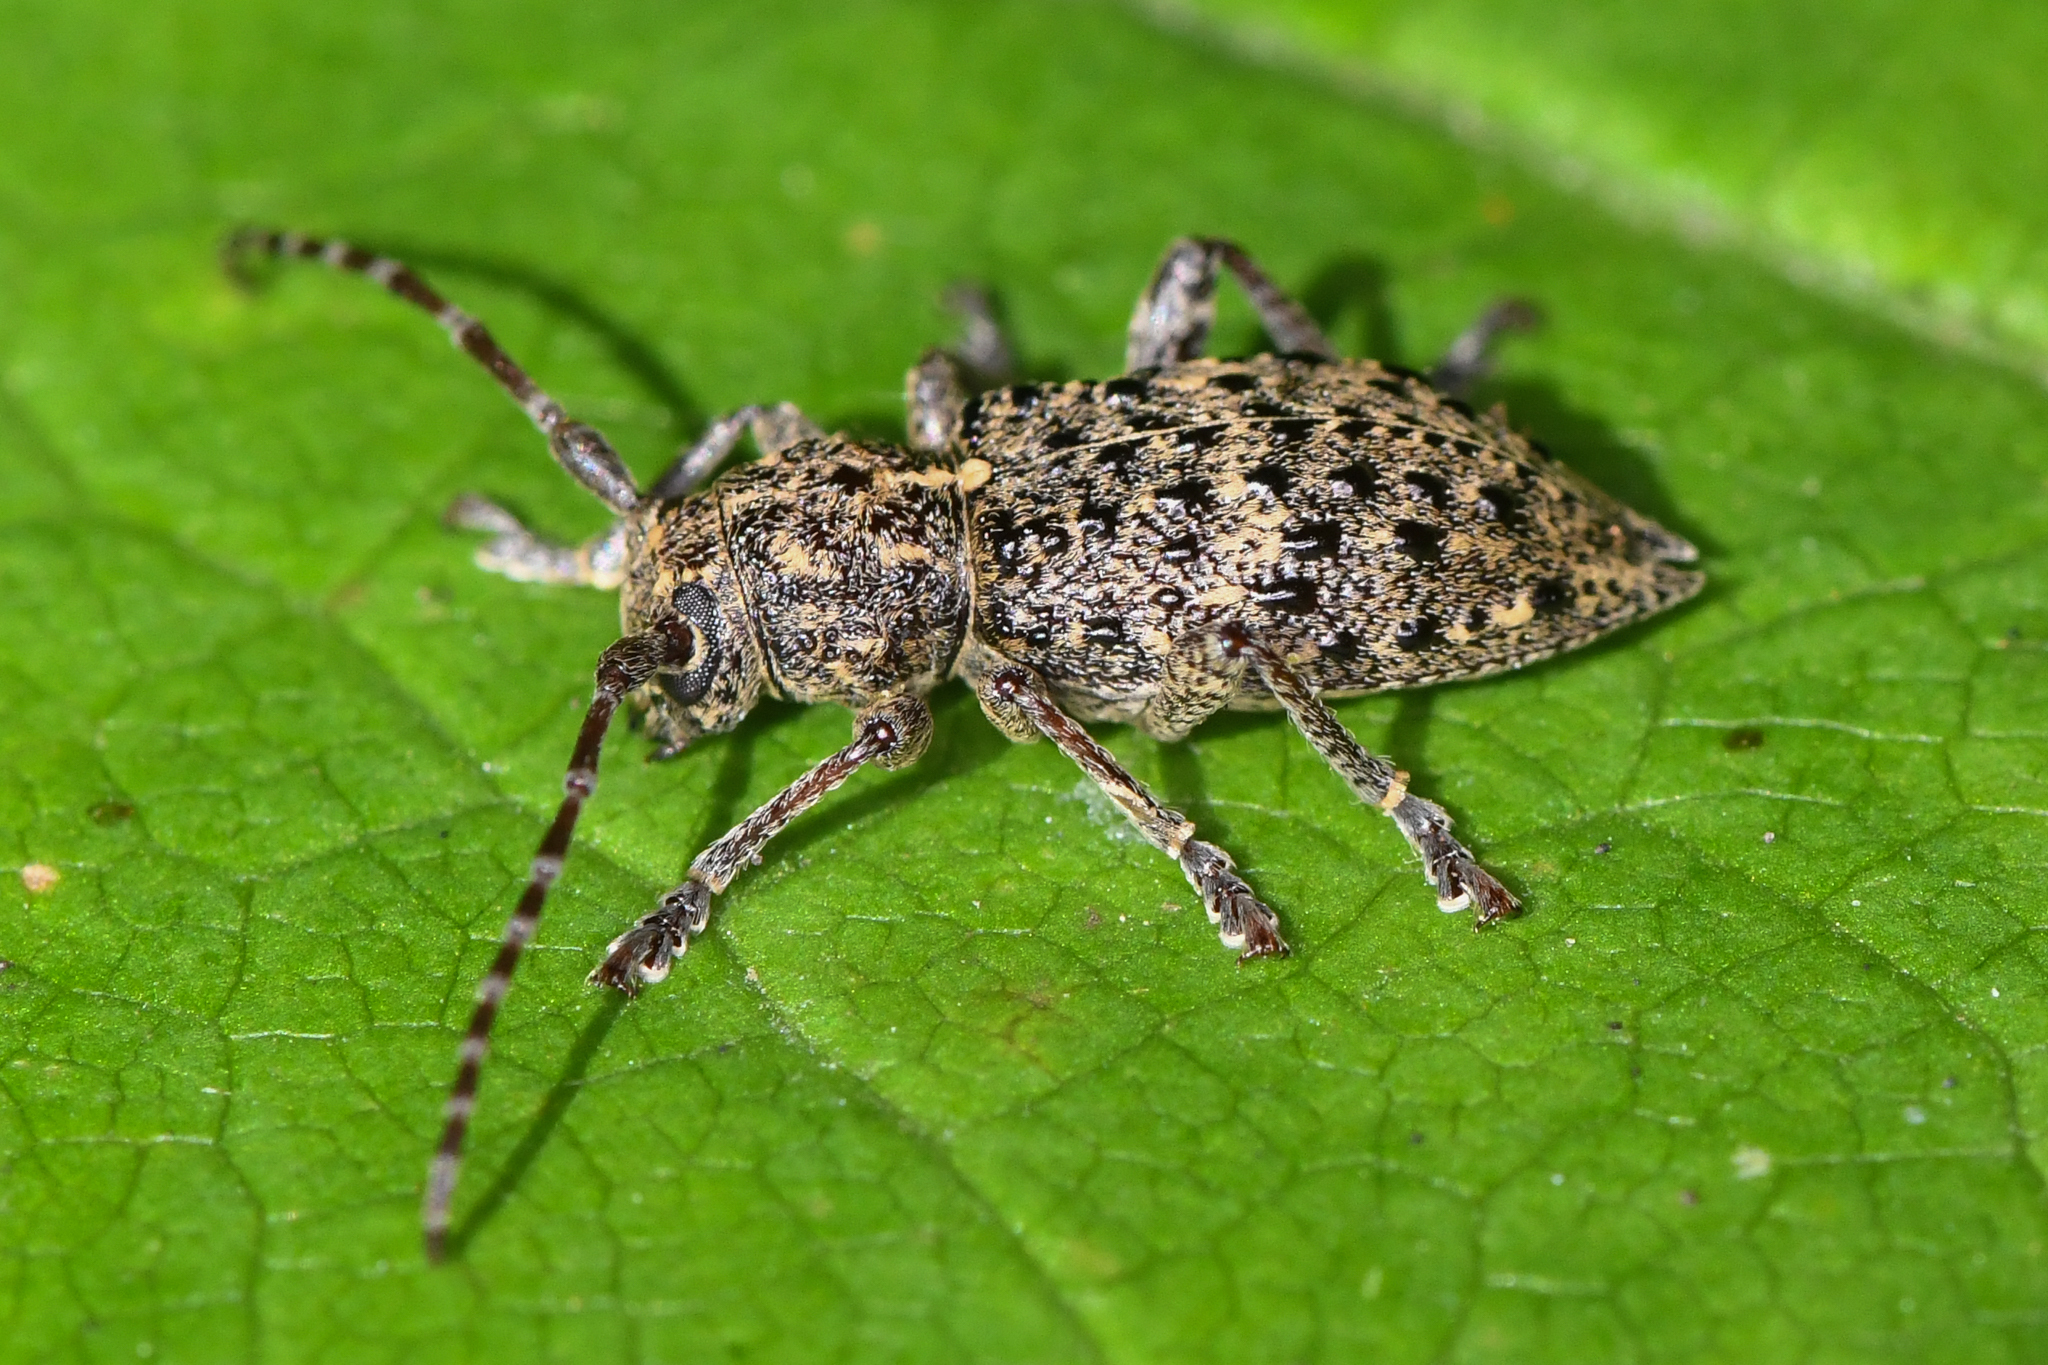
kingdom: Animalia
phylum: Arthropoda
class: Insecta
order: Coleoptera
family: Cerambycidae
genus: Plectrura
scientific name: Plectrura spinicauda
